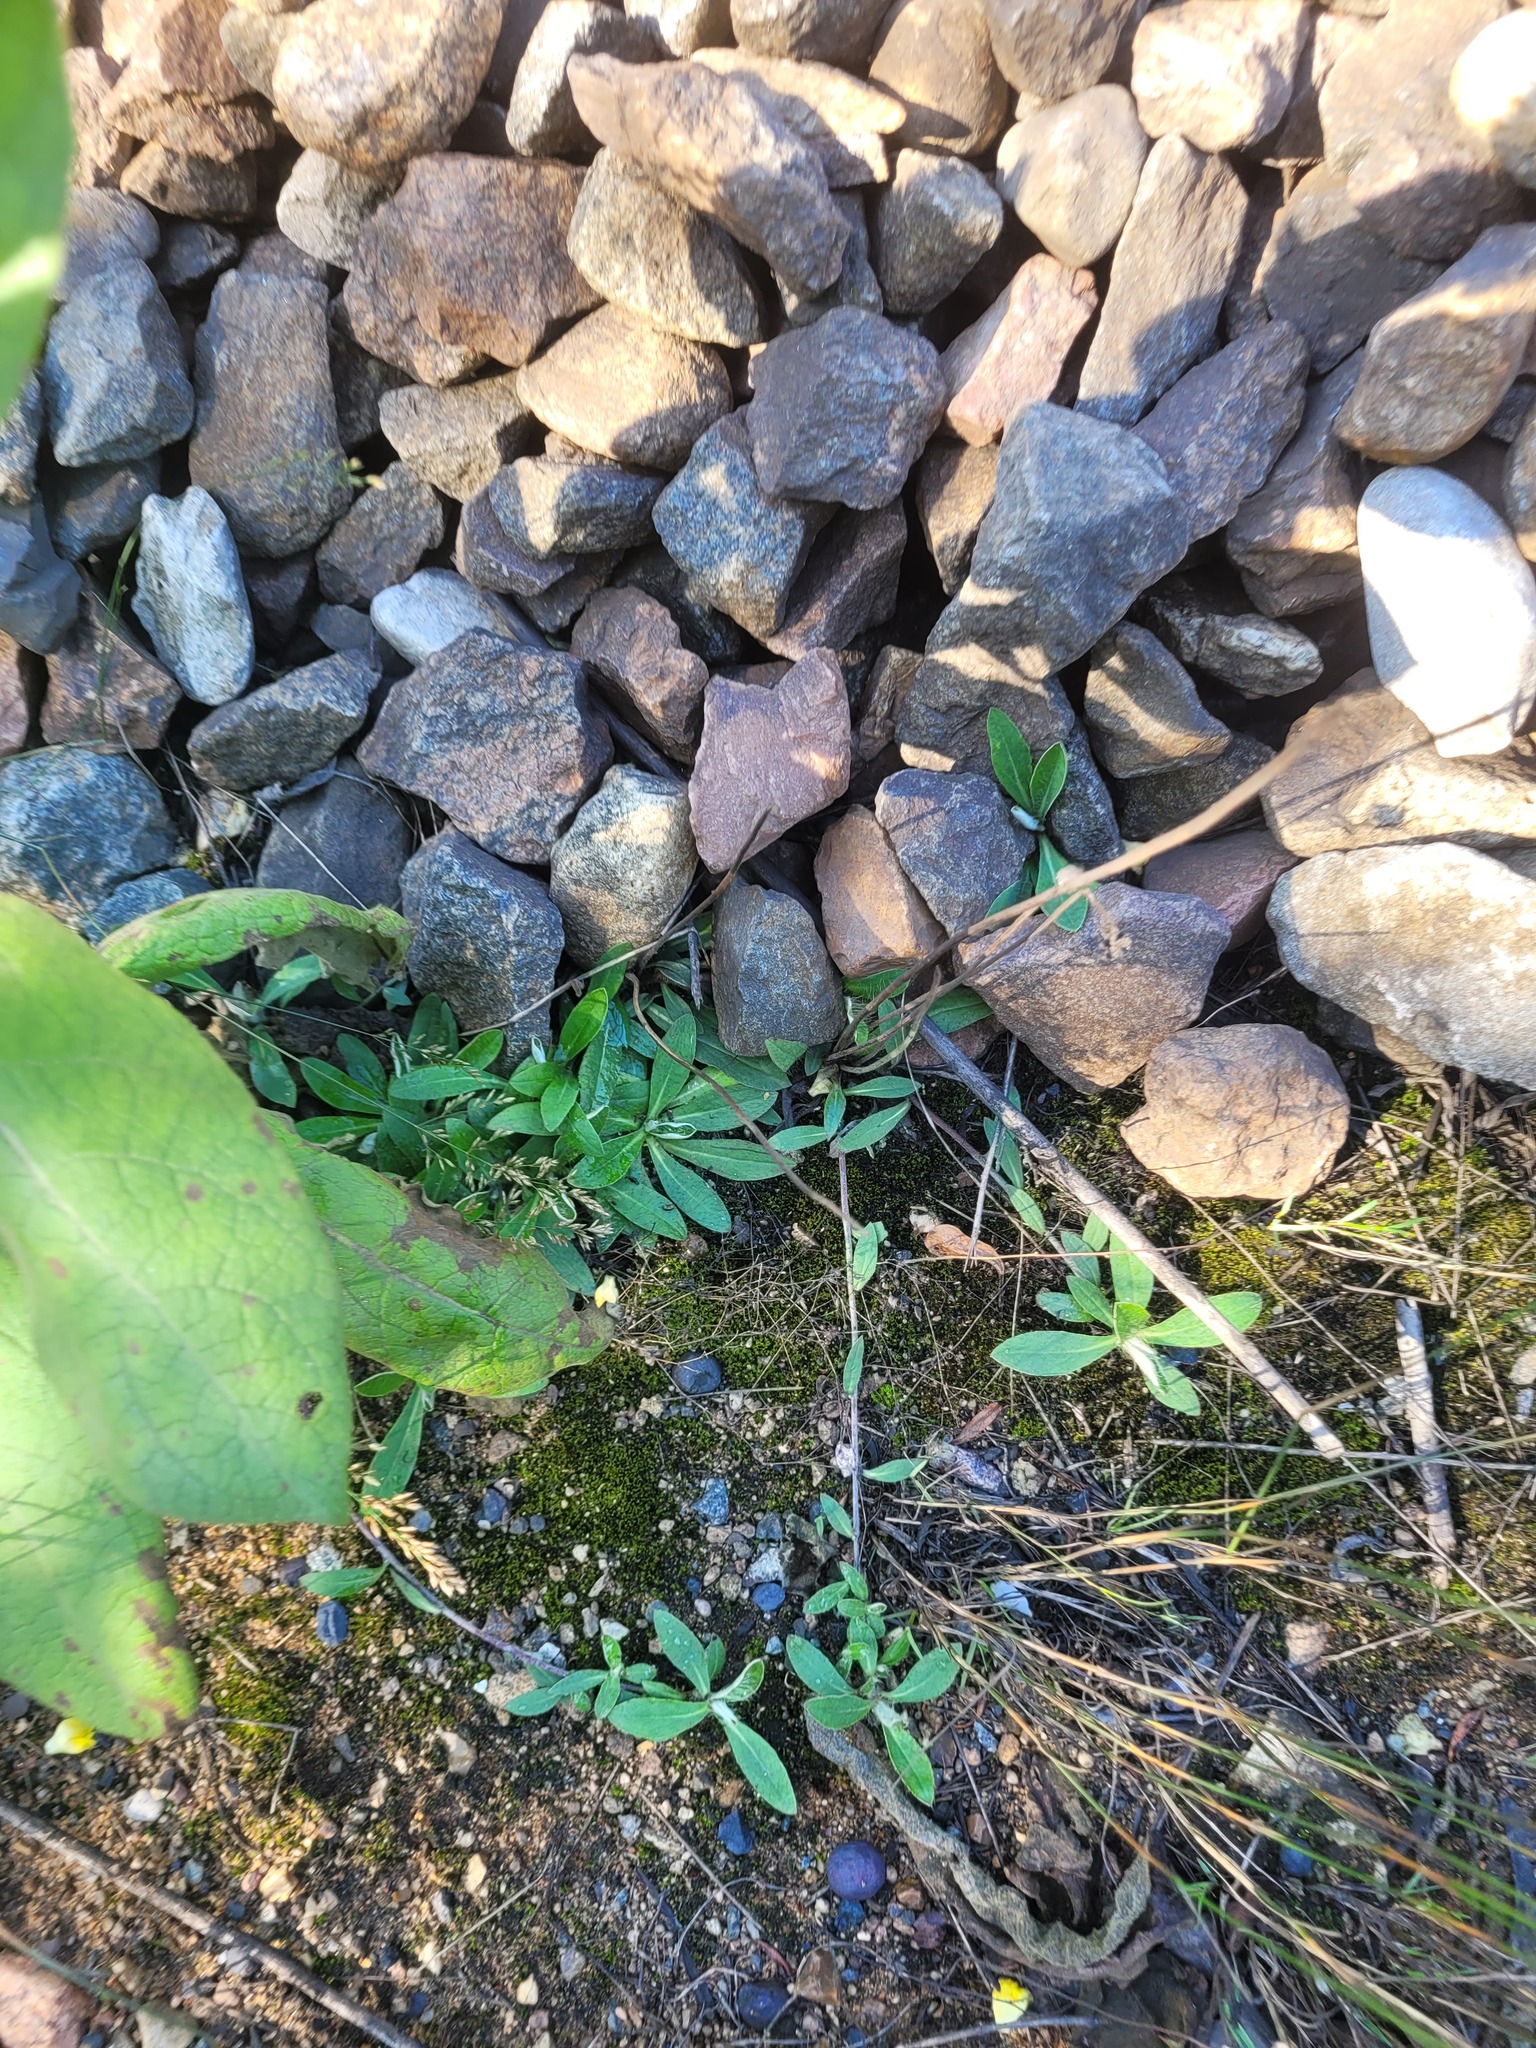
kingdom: Plantae
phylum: Tracheophyta
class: Magnoliopsida
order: Asterales
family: Asteraceae
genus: Pilosella
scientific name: Pilosella officinarum
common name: Mouse-ear hawkweed
